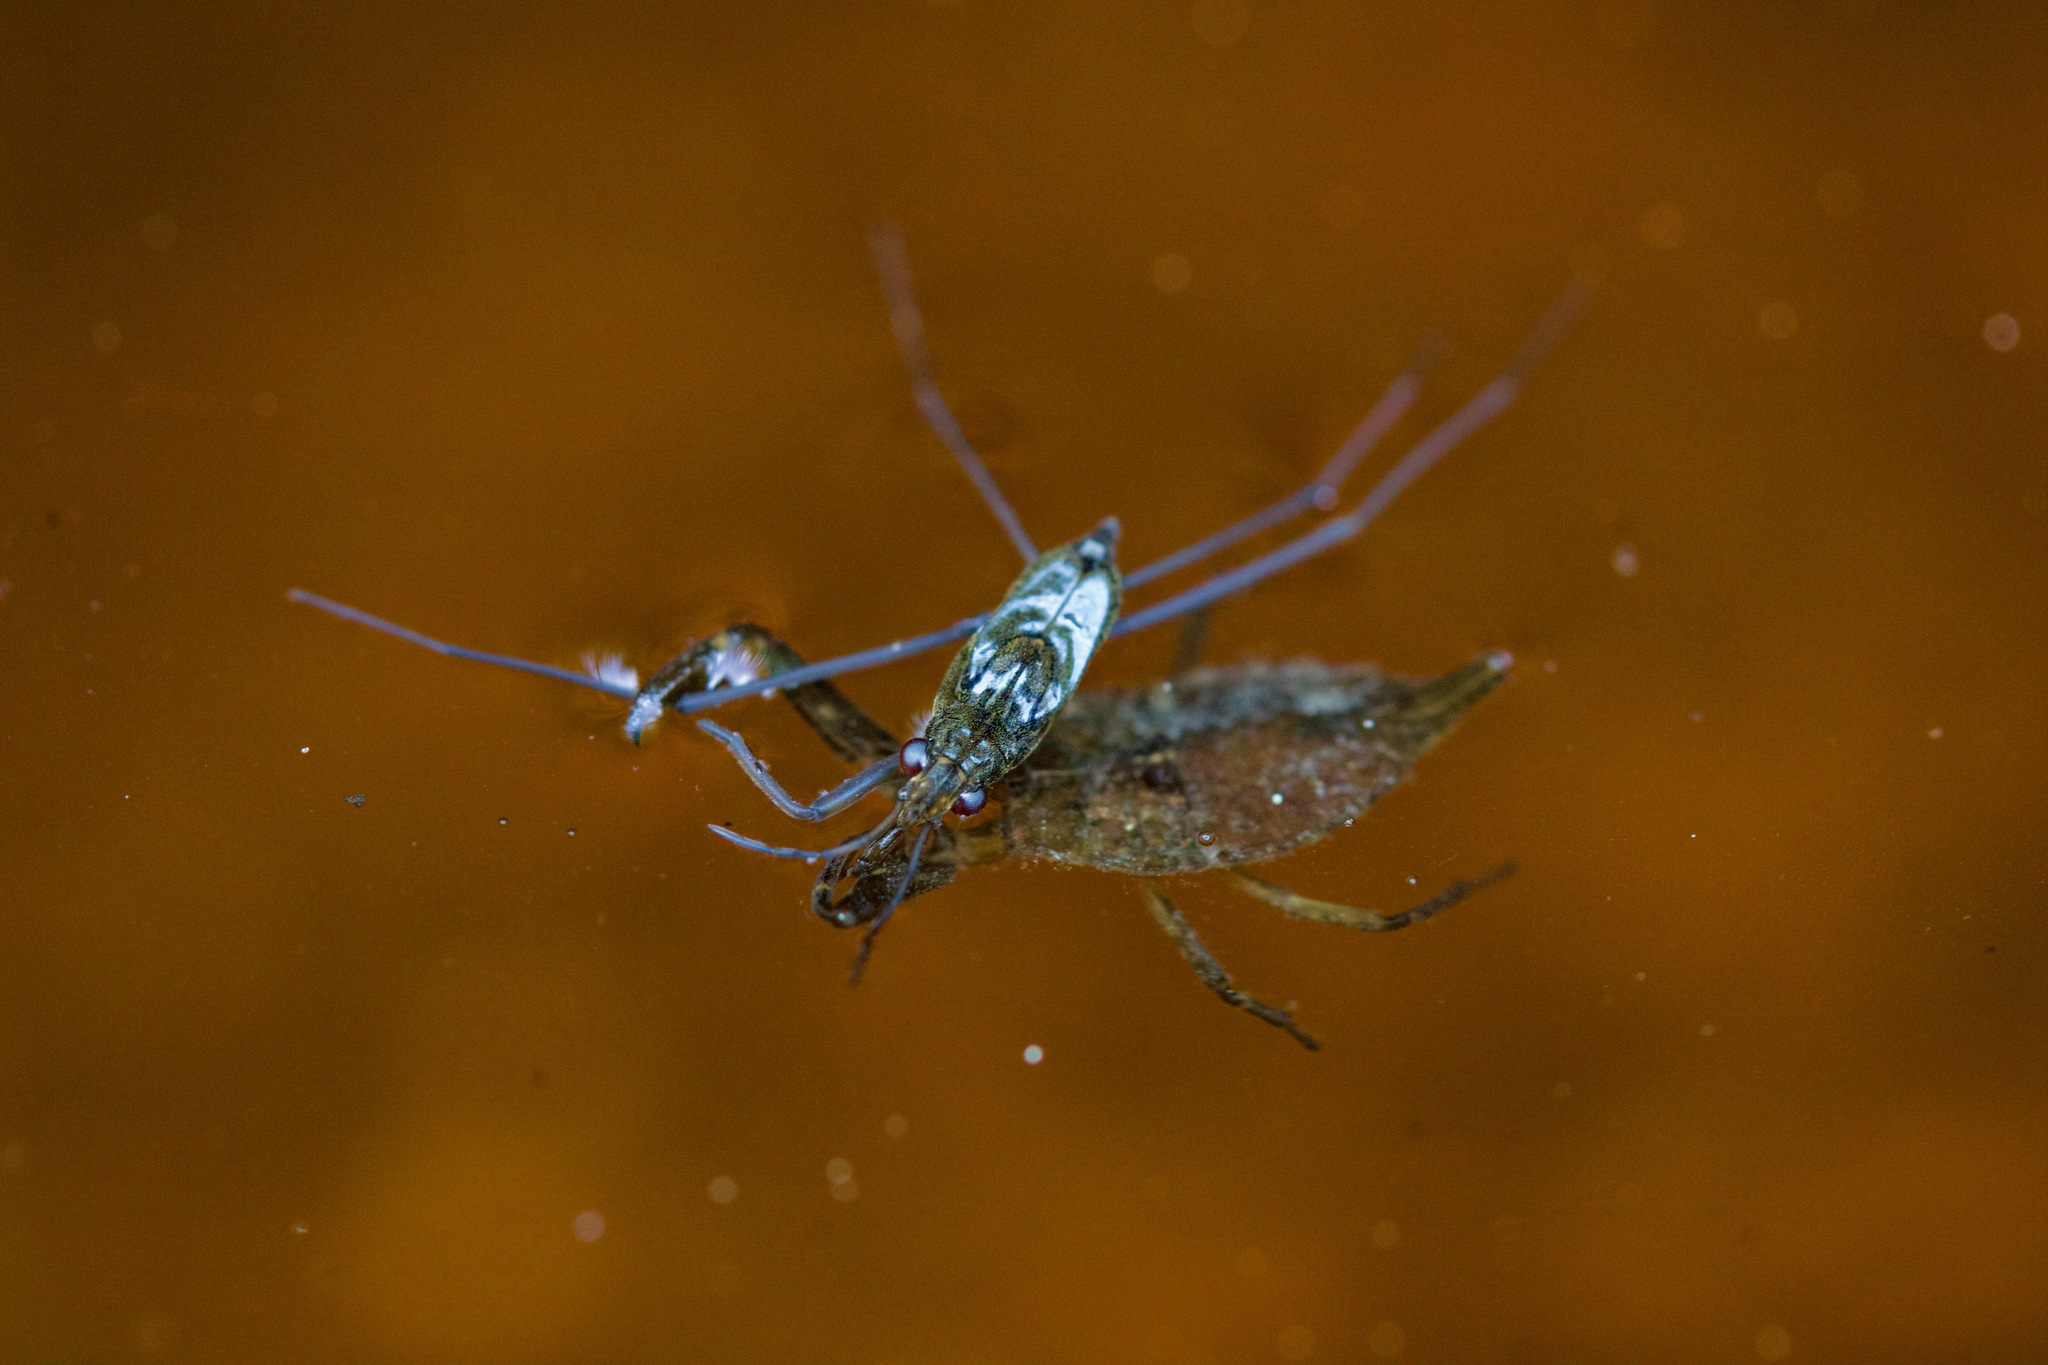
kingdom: Animalia
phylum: Arthropoda
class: Insecta
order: Hemiptera
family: Nepidae
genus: Nepa
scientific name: Nepa cinerea
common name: Water scorpion
